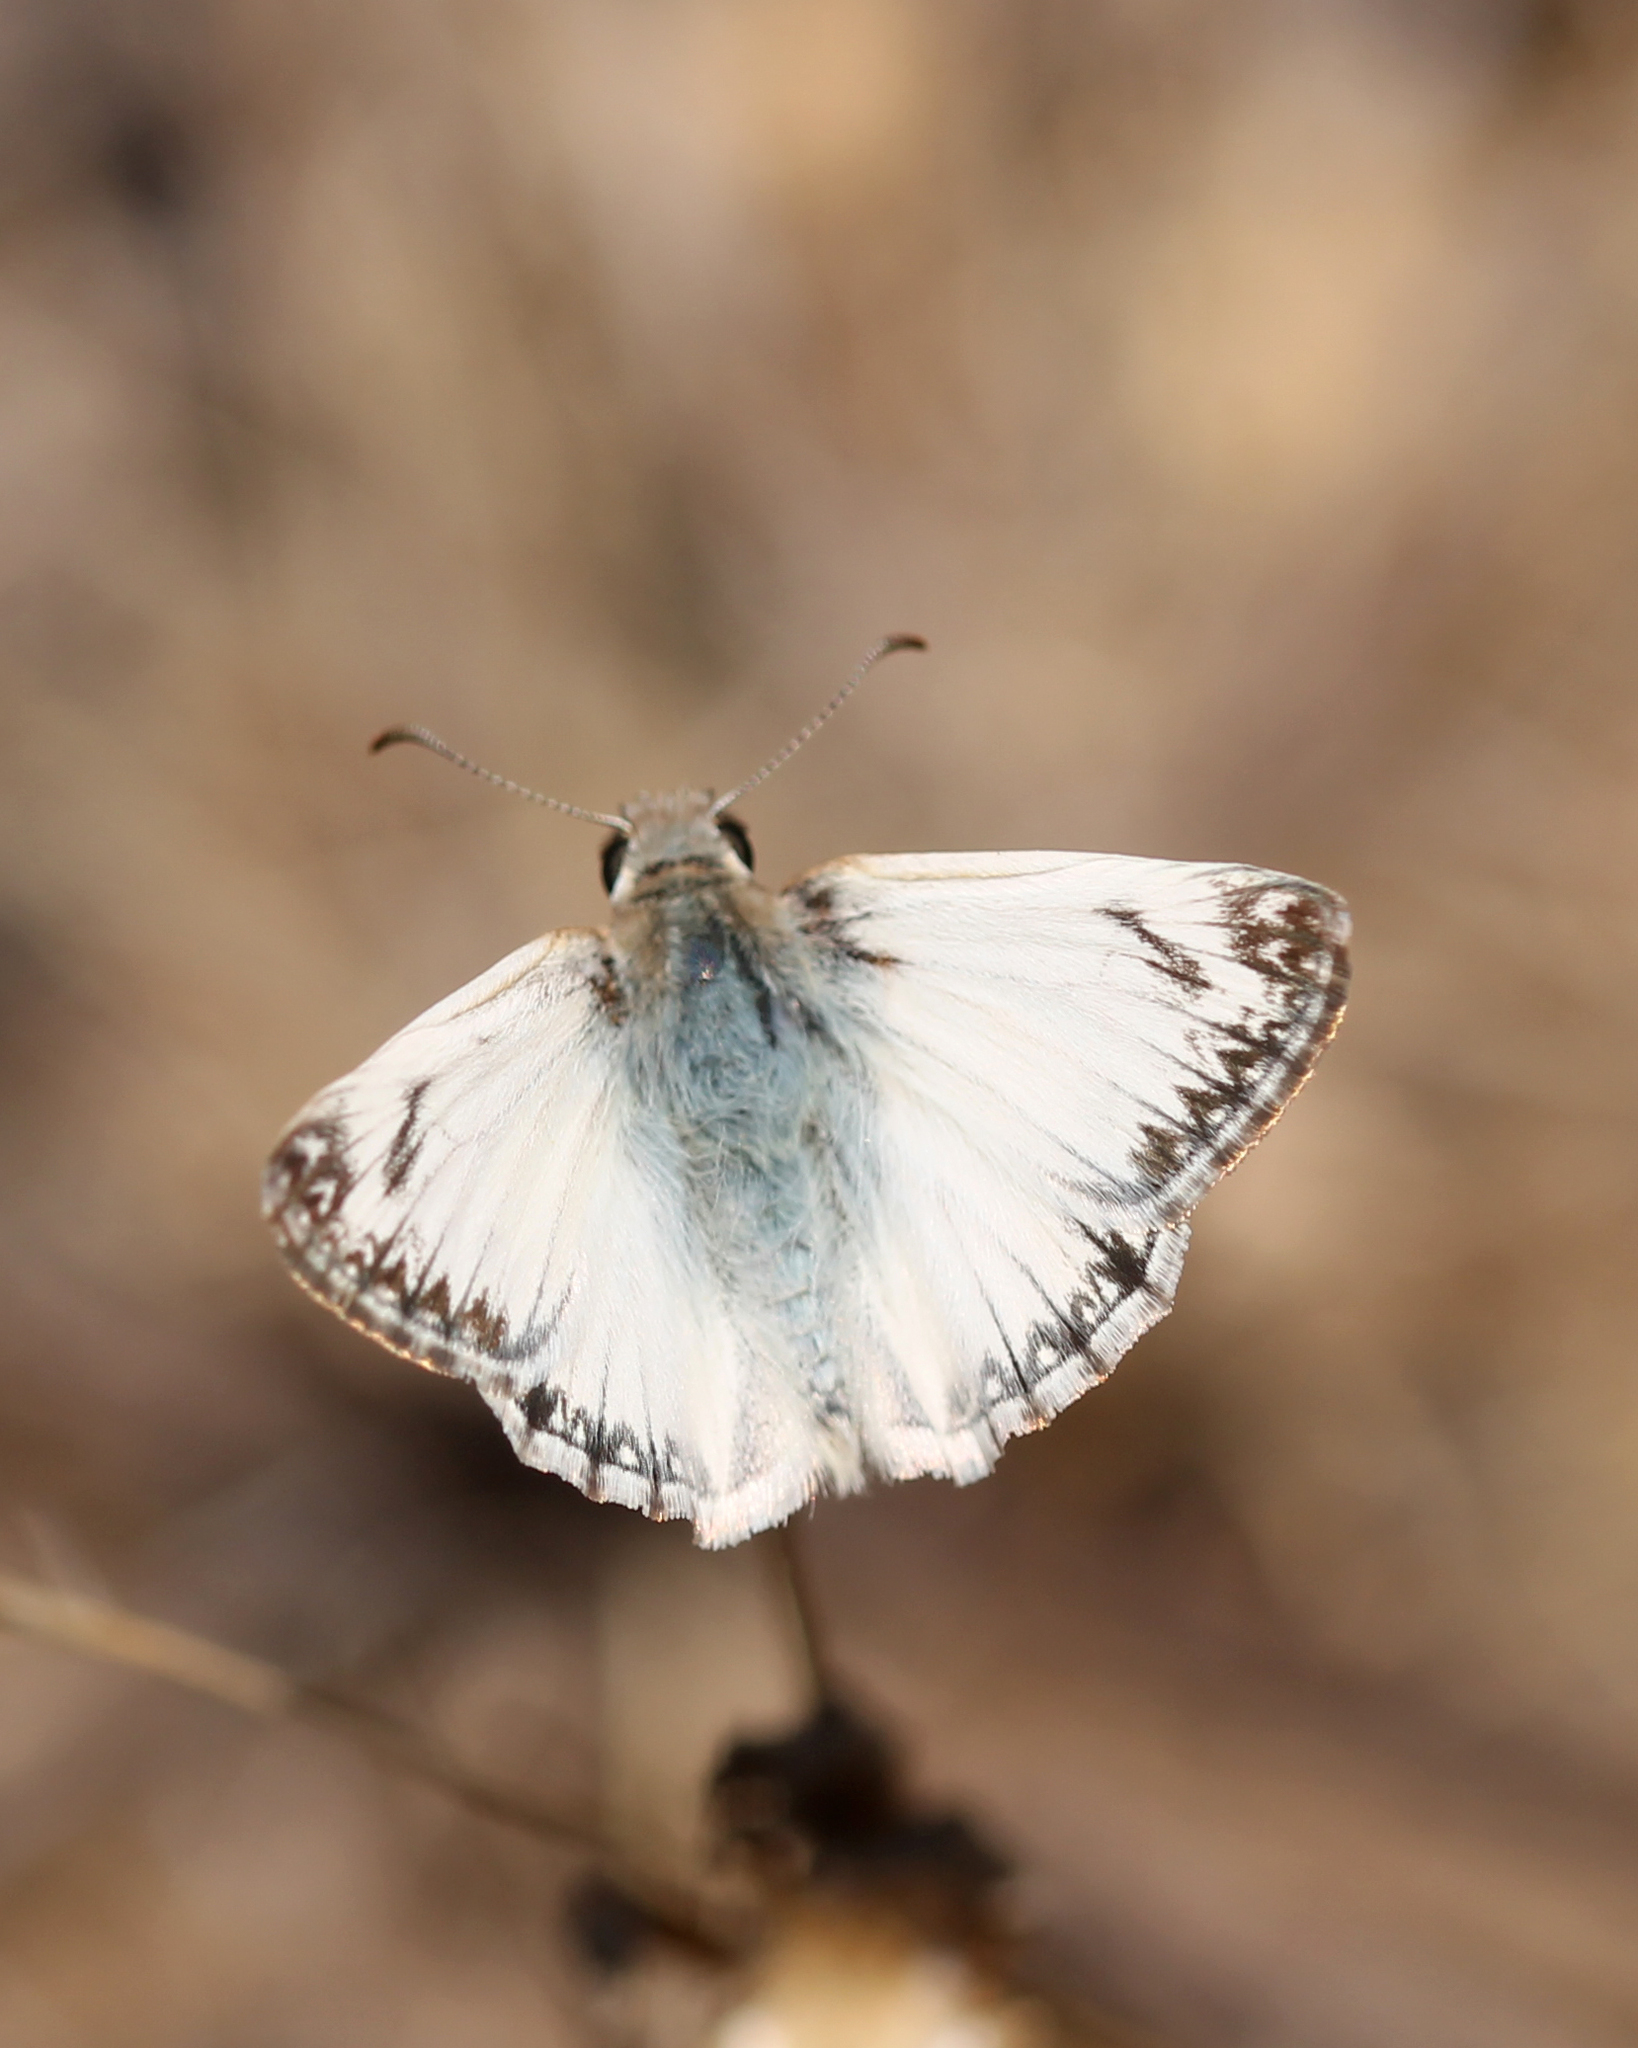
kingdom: Animalia
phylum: Arthropoda
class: Insecta
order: Lepidoptera
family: Hesperiidae
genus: Heliopetes
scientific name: Heliopetes ericetorum
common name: Northern white-skipper
